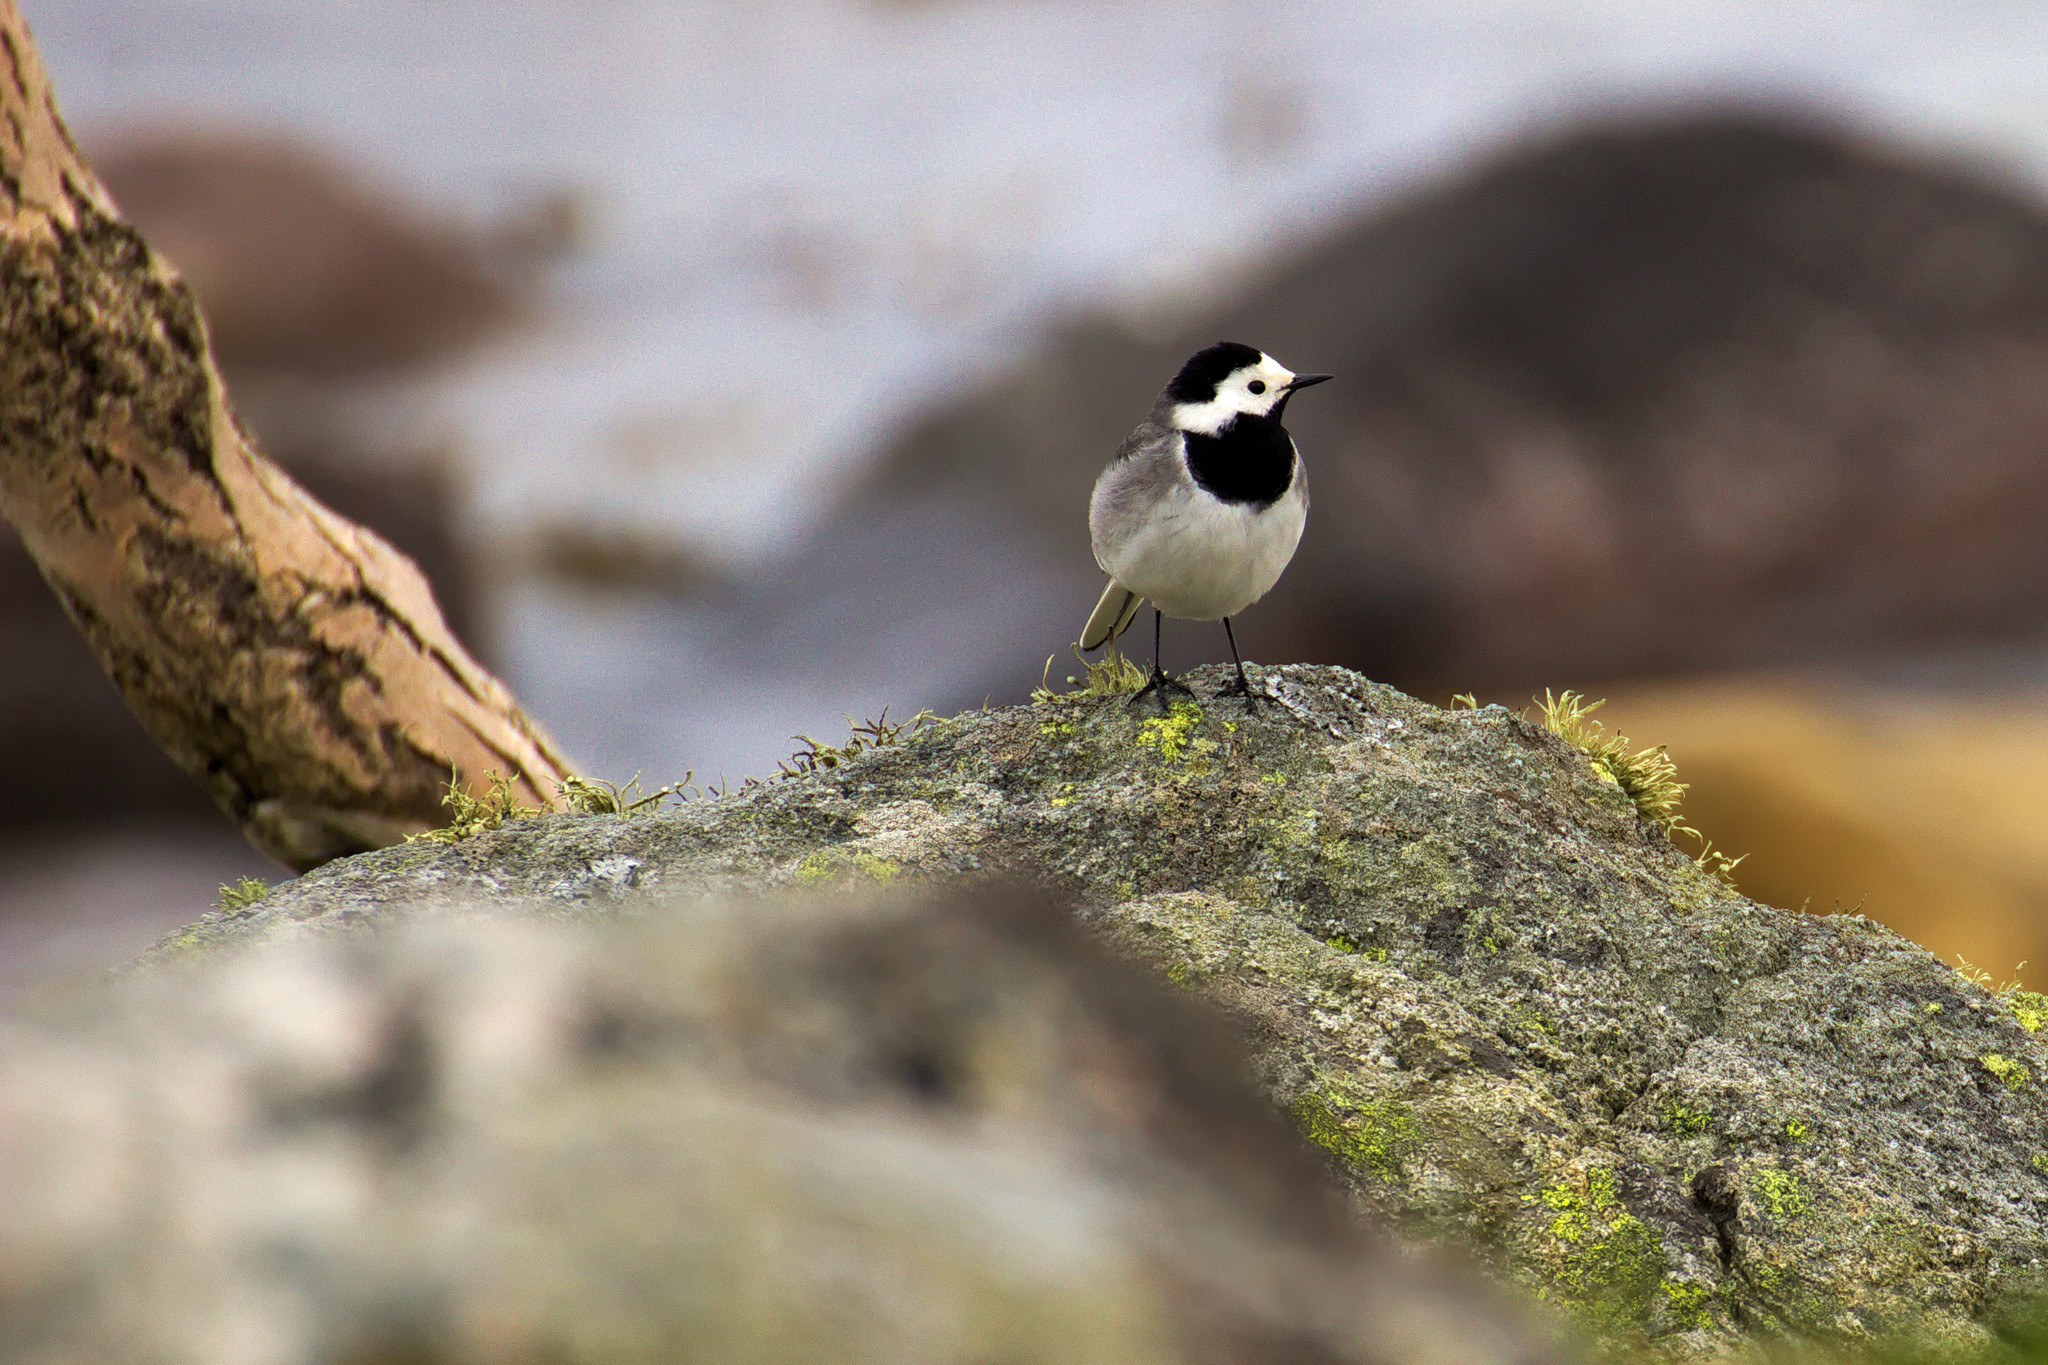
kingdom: Animalia
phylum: Chordata
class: Aves
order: Passeriformes
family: Motacillidae
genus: Motacilla
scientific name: Motacilla alba
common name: White wagtail
